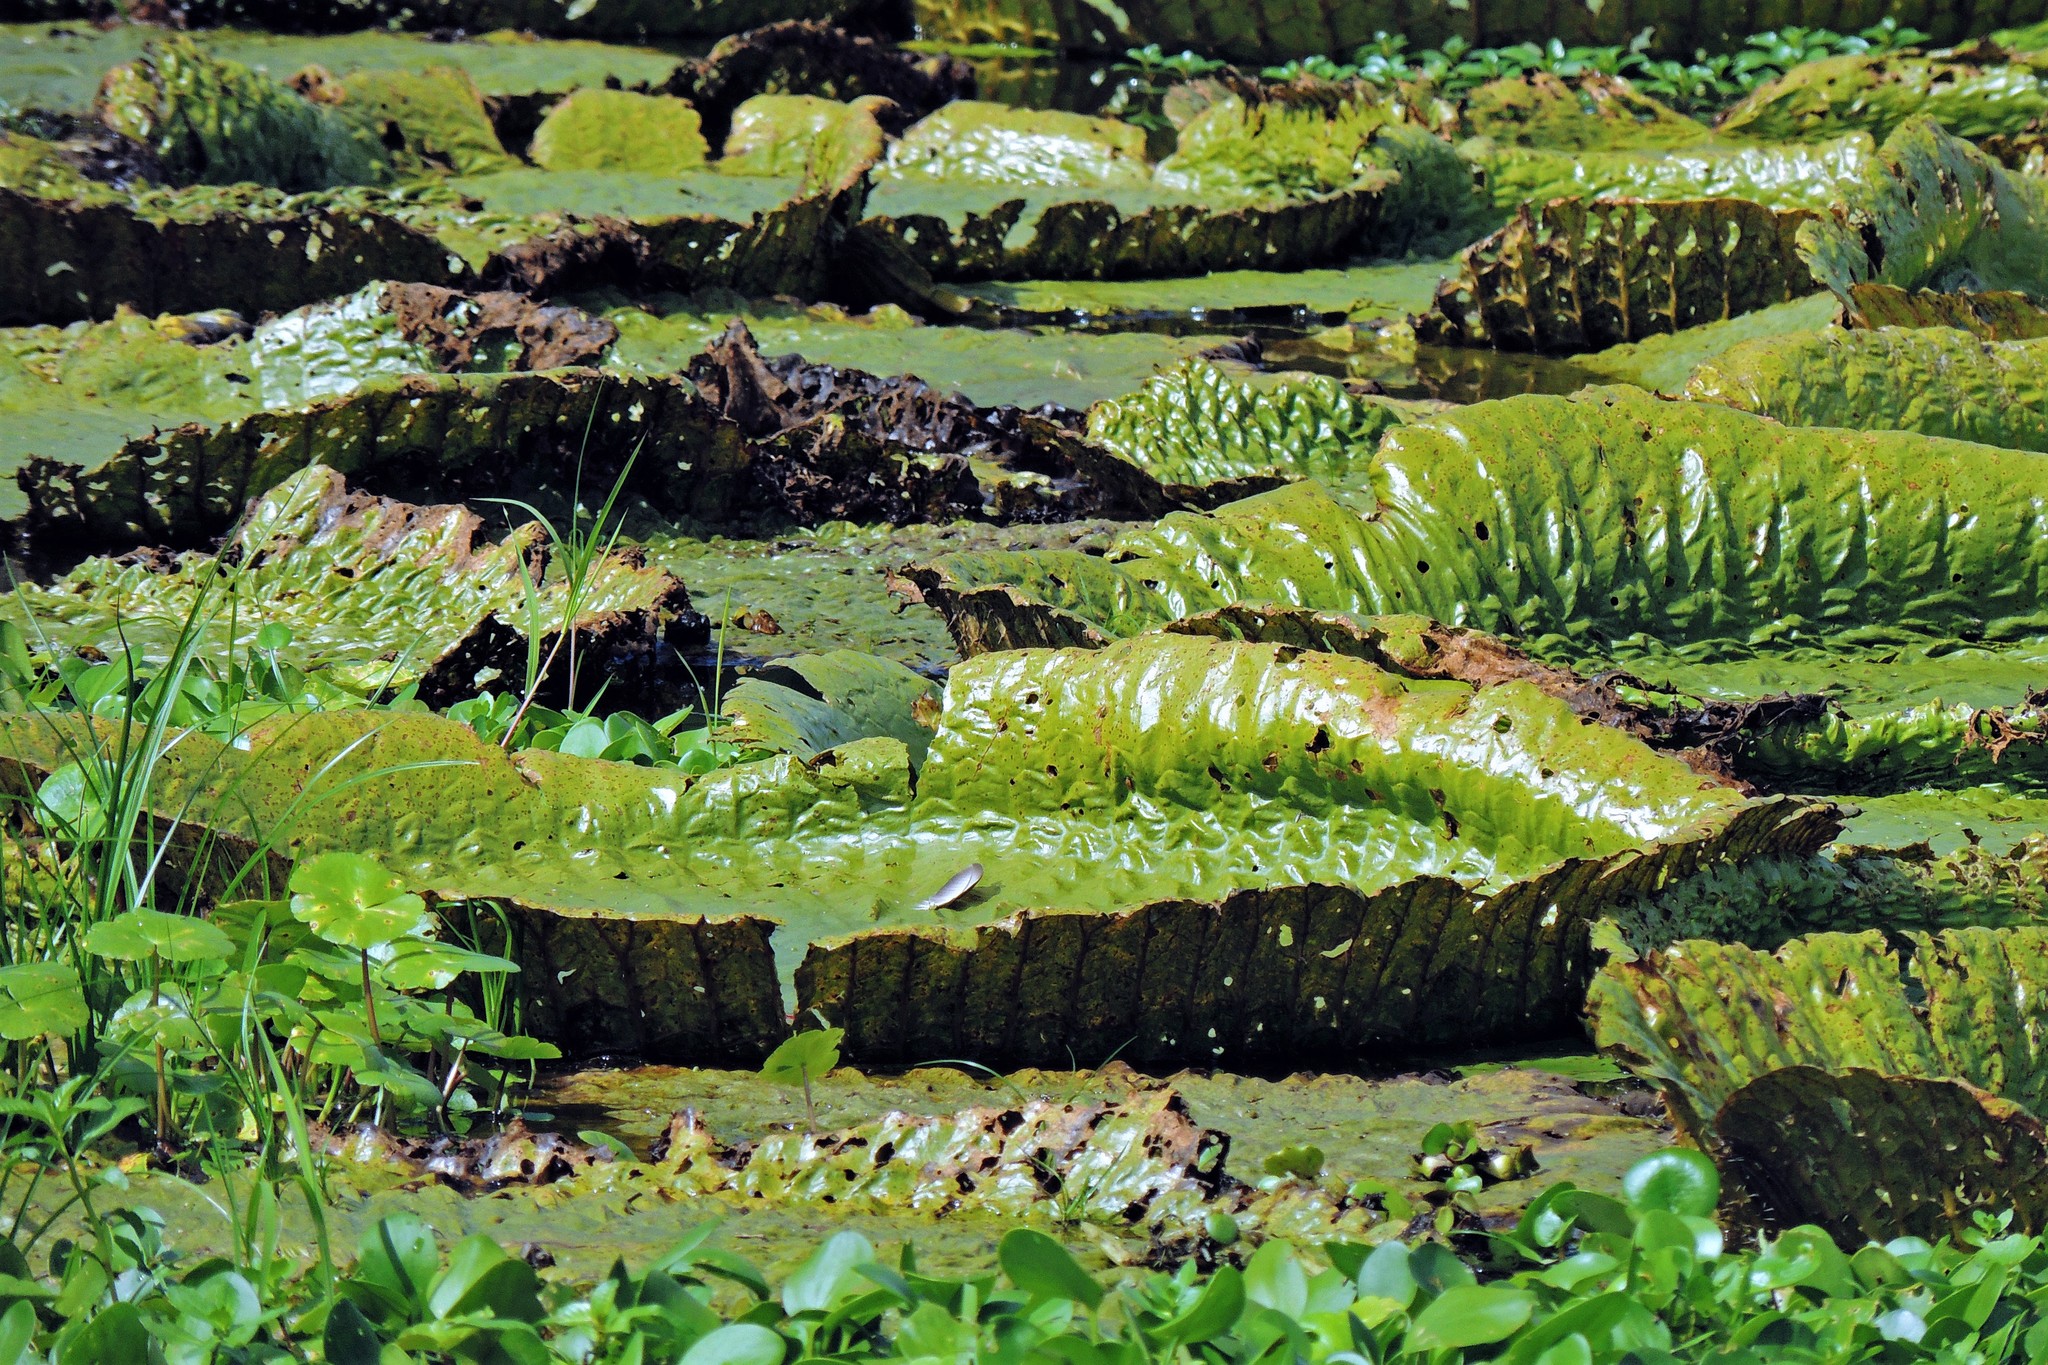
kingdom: Plantae
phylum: Tracheophyta
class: Magnoliopsida
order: Nymphaeales
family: Nymphaeaceae
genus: Victoria
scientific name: Victoria cruziana
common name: Santa cruz water-lily
